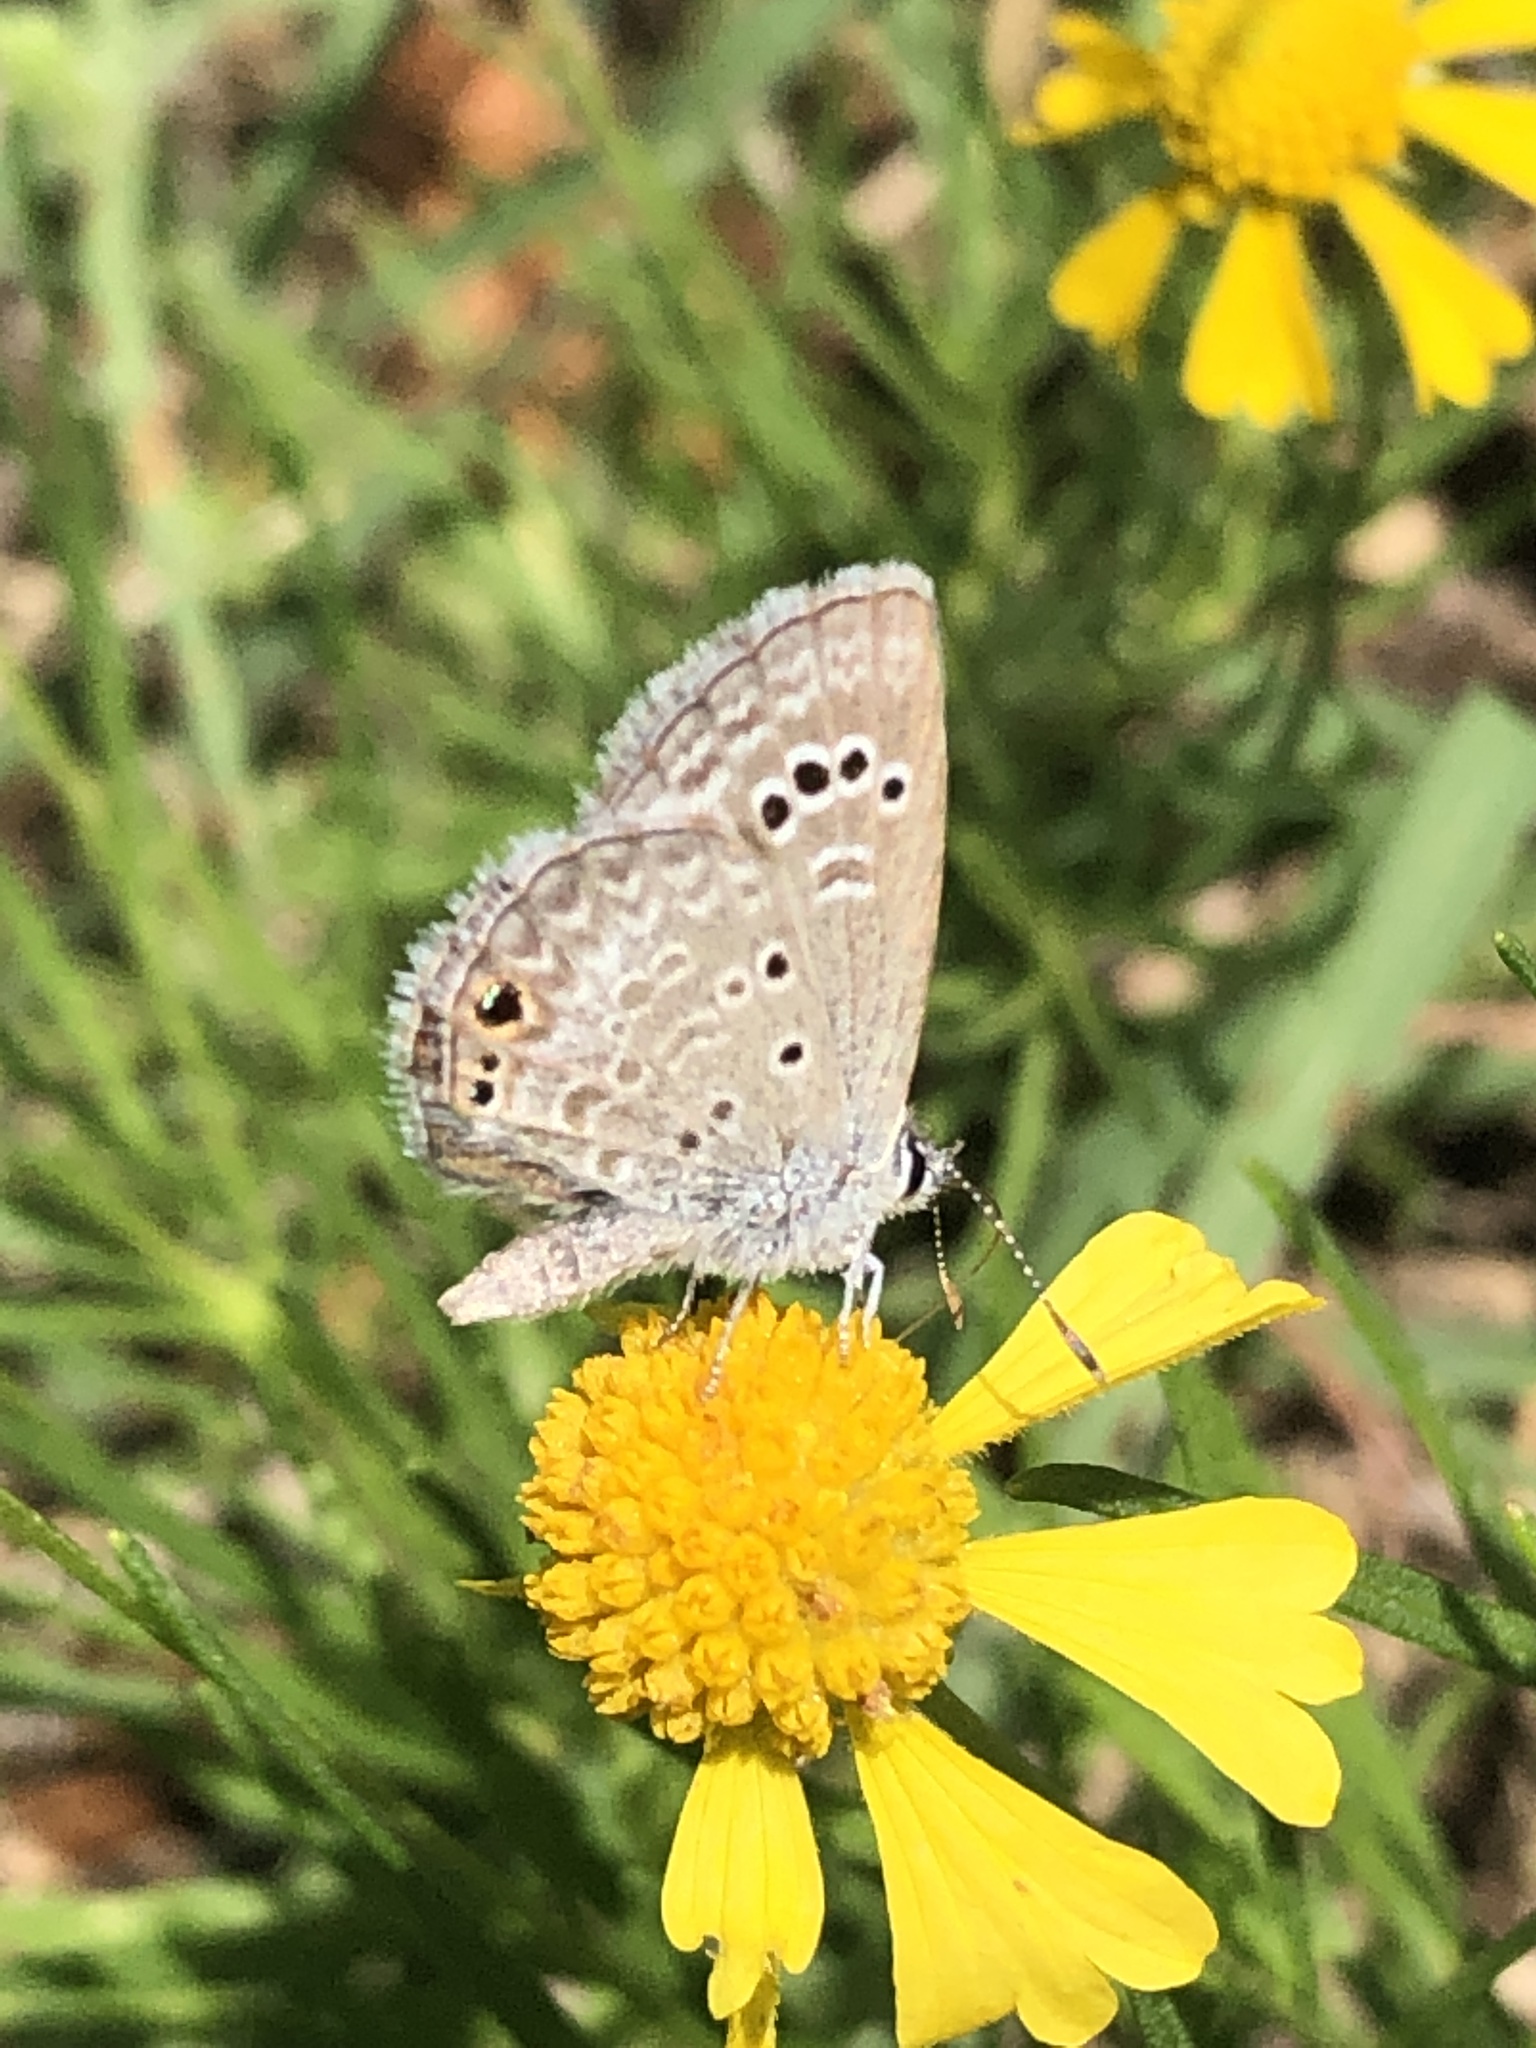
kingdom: Animalia
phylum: Arthropoda
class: Insecta
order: Lepidoptera
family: Lycaenidae
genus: Echinargus
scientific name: Echinargus isola
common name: Reakirt's blue
